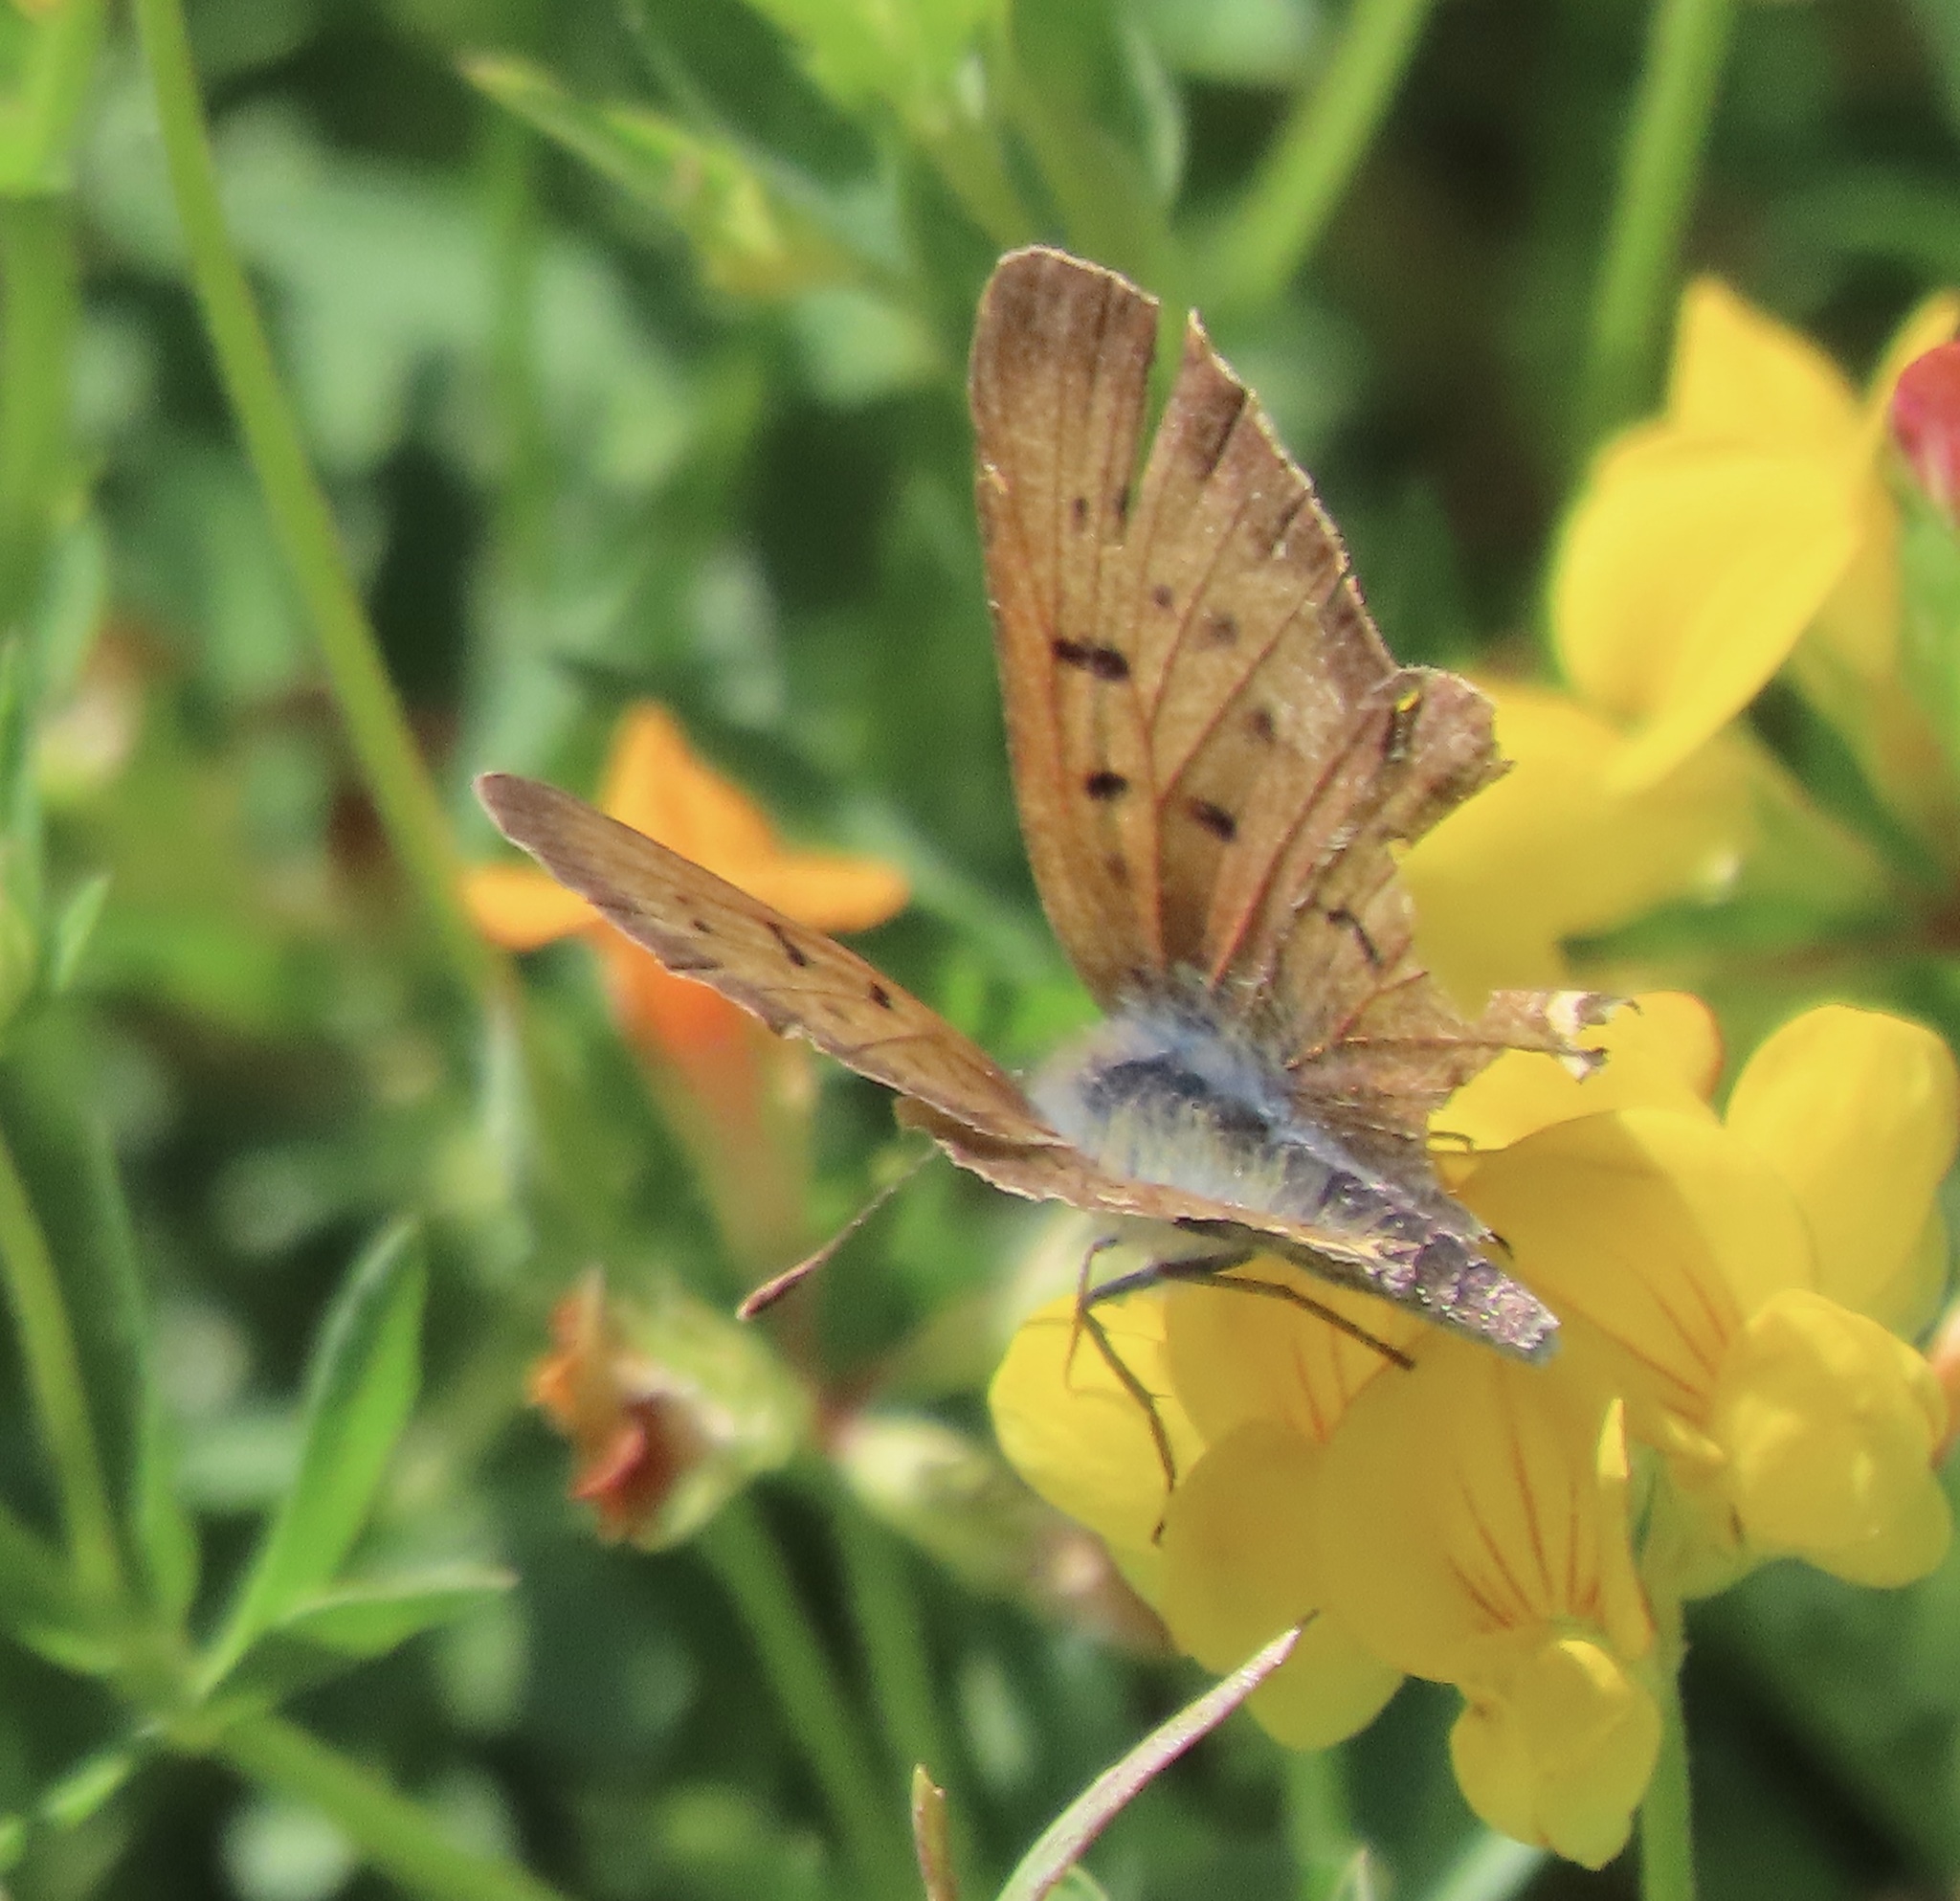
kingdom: Animalia
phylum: Arthropoda
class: Insecta
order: Lepidoptera
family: Lycaenidae
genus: Tharsalea
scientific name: Tharsalea helloides
